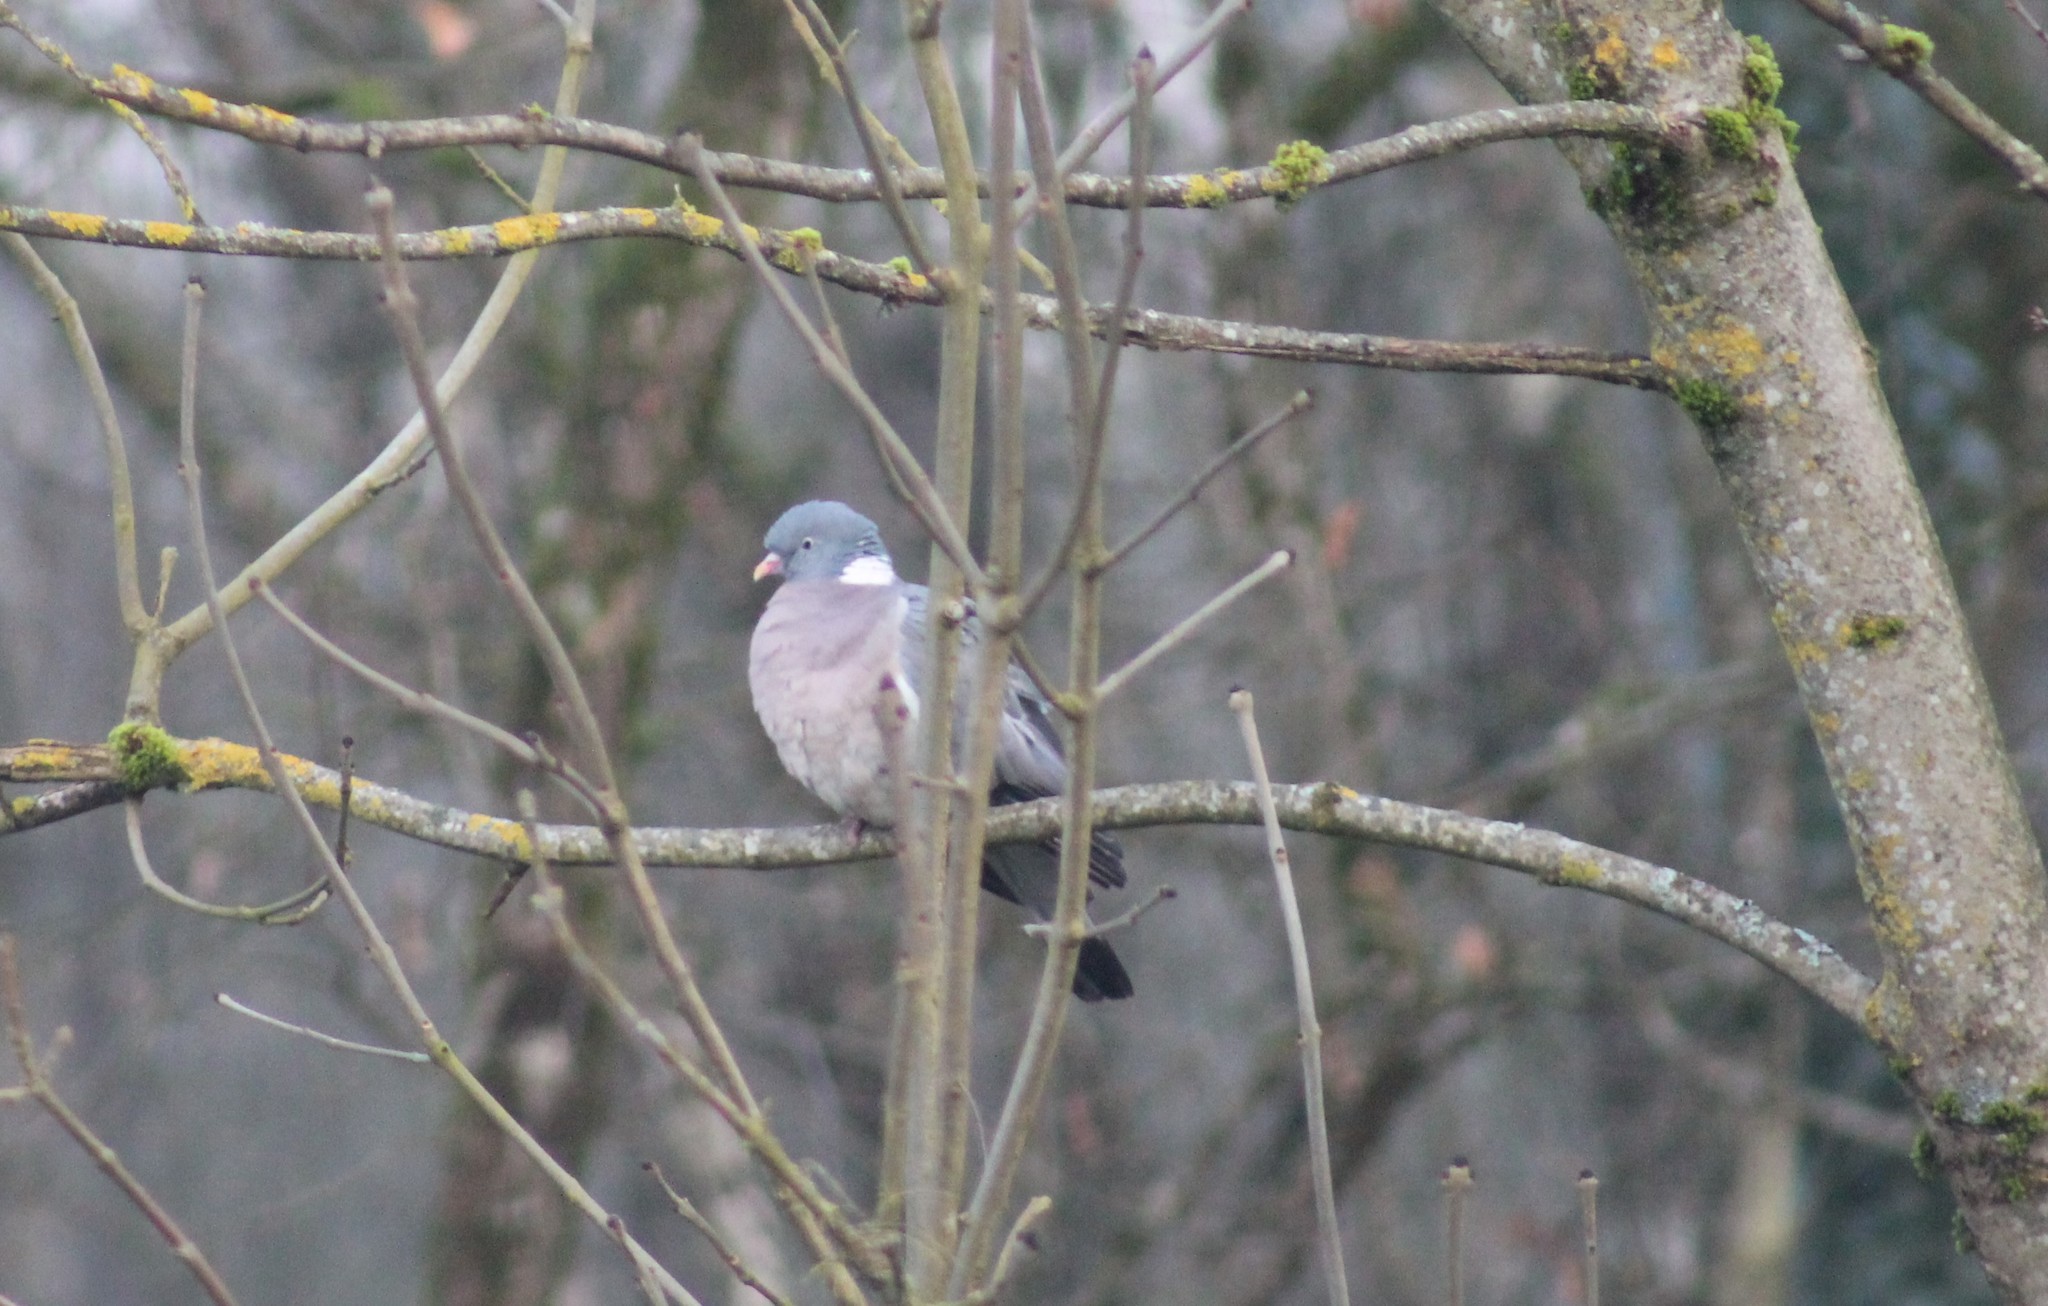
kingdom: Animalia
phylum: Chordata
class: Aves
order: Columbiformes
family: Columbidae
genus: Columba
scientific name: Columba palumbus
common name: Common wood pigeon
